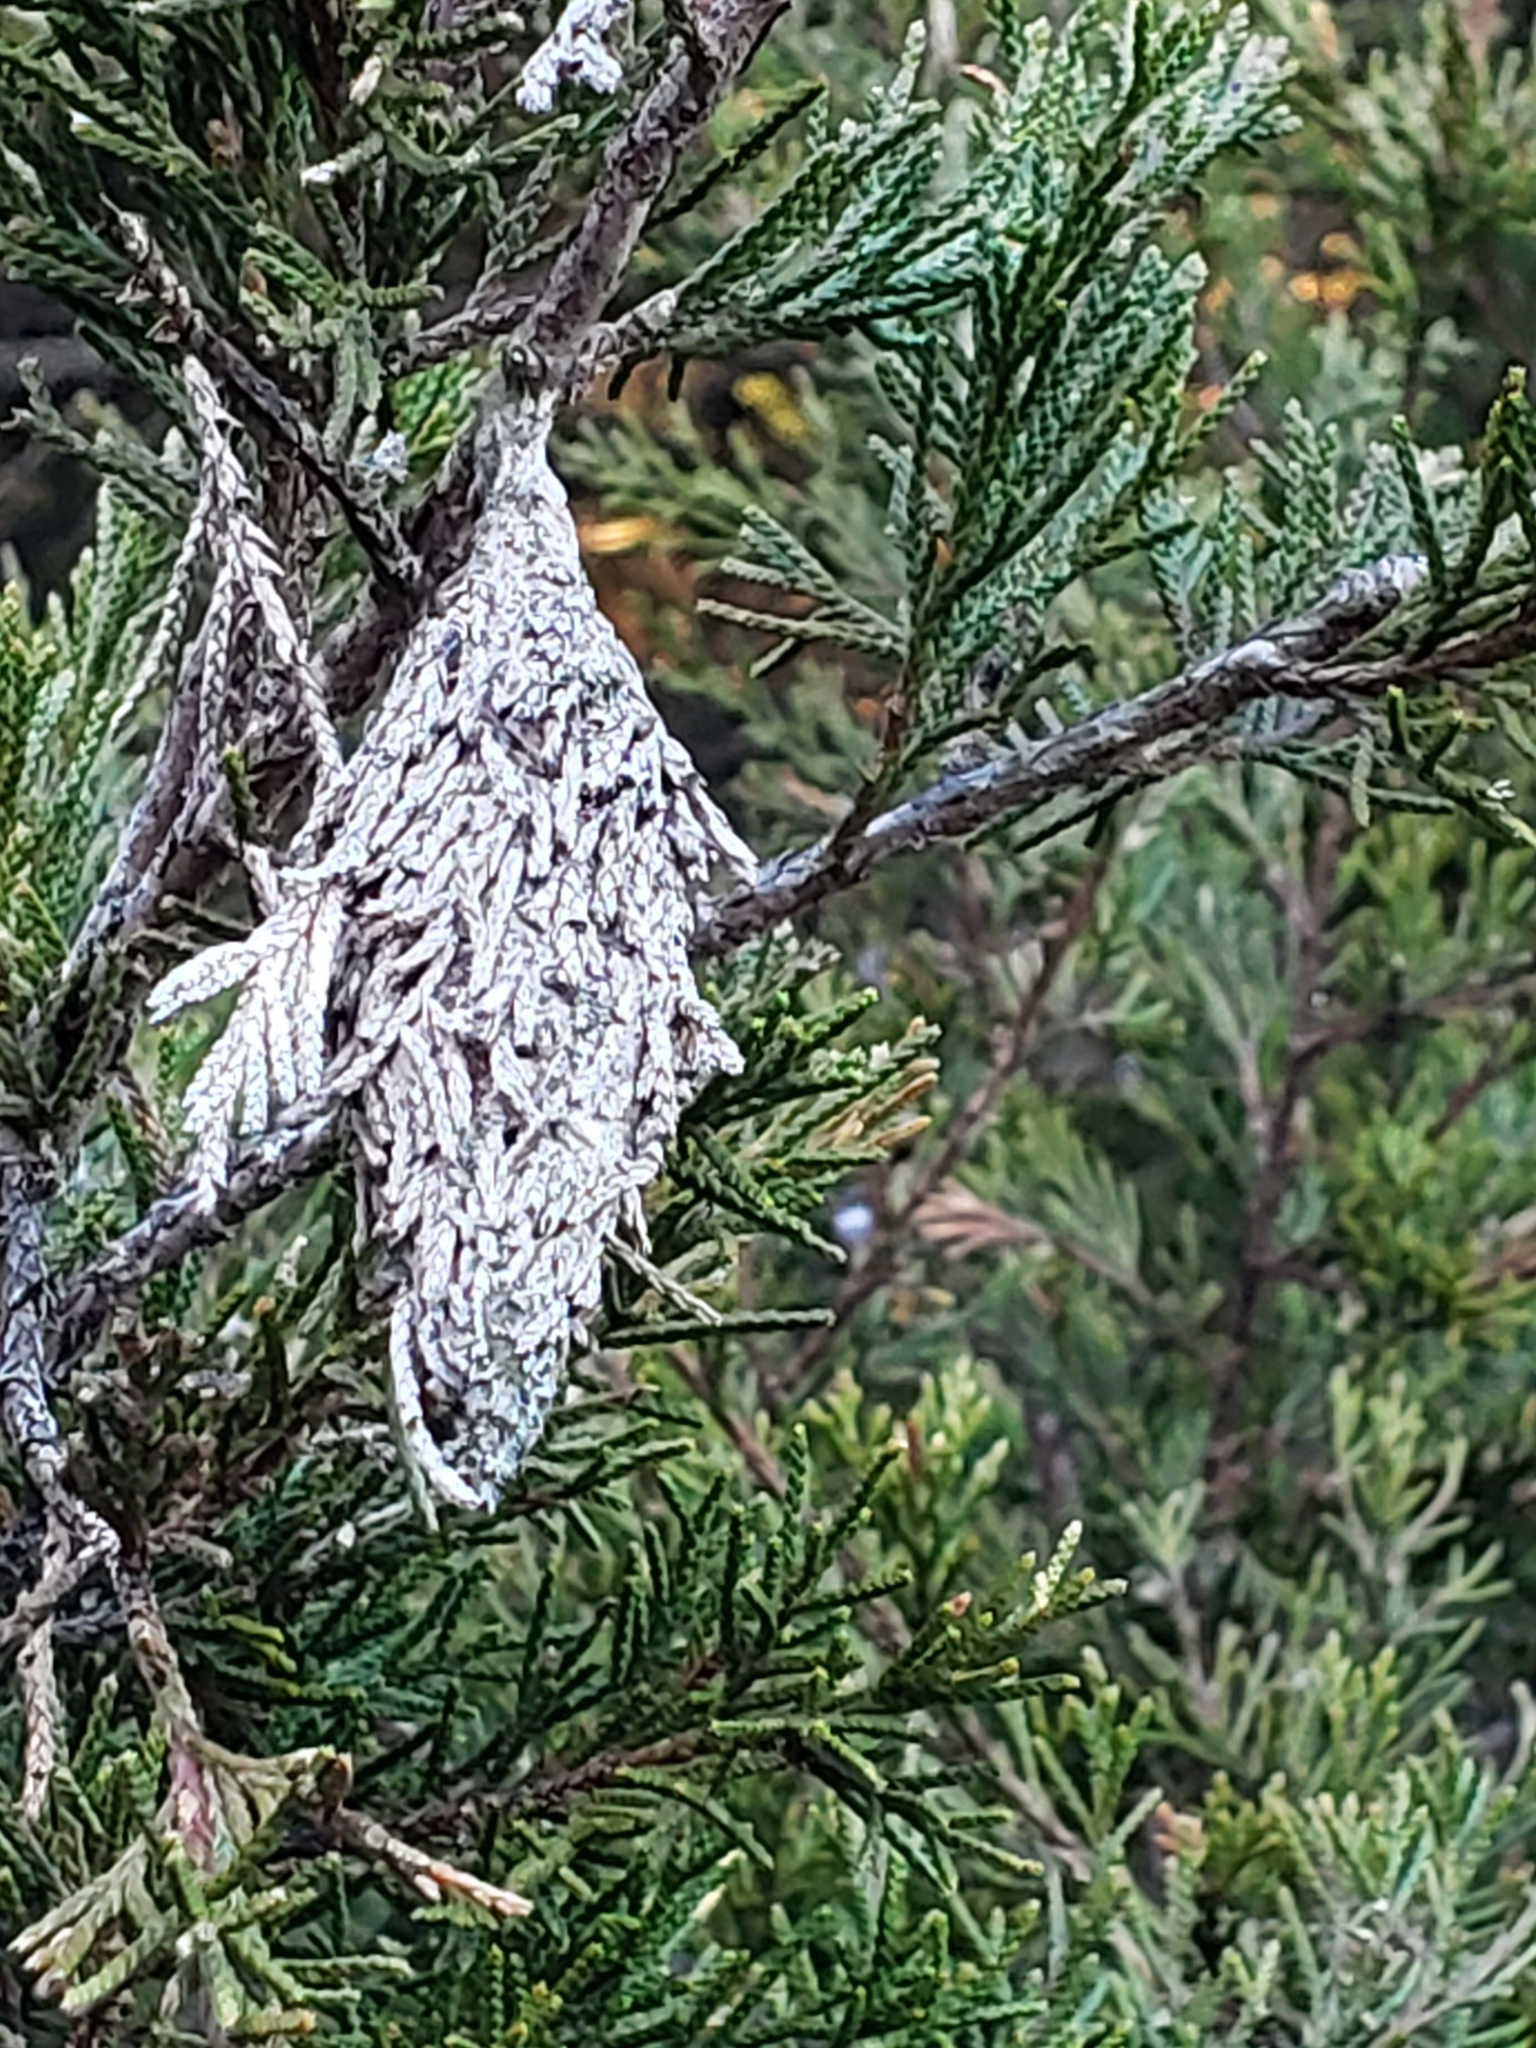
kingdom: Animalia
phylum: Arthropoda
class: Insecta
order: Lepidoptera
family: Psychidae
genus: Thyridopteryx
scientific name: Thyridopteryx ephemeraeformis
